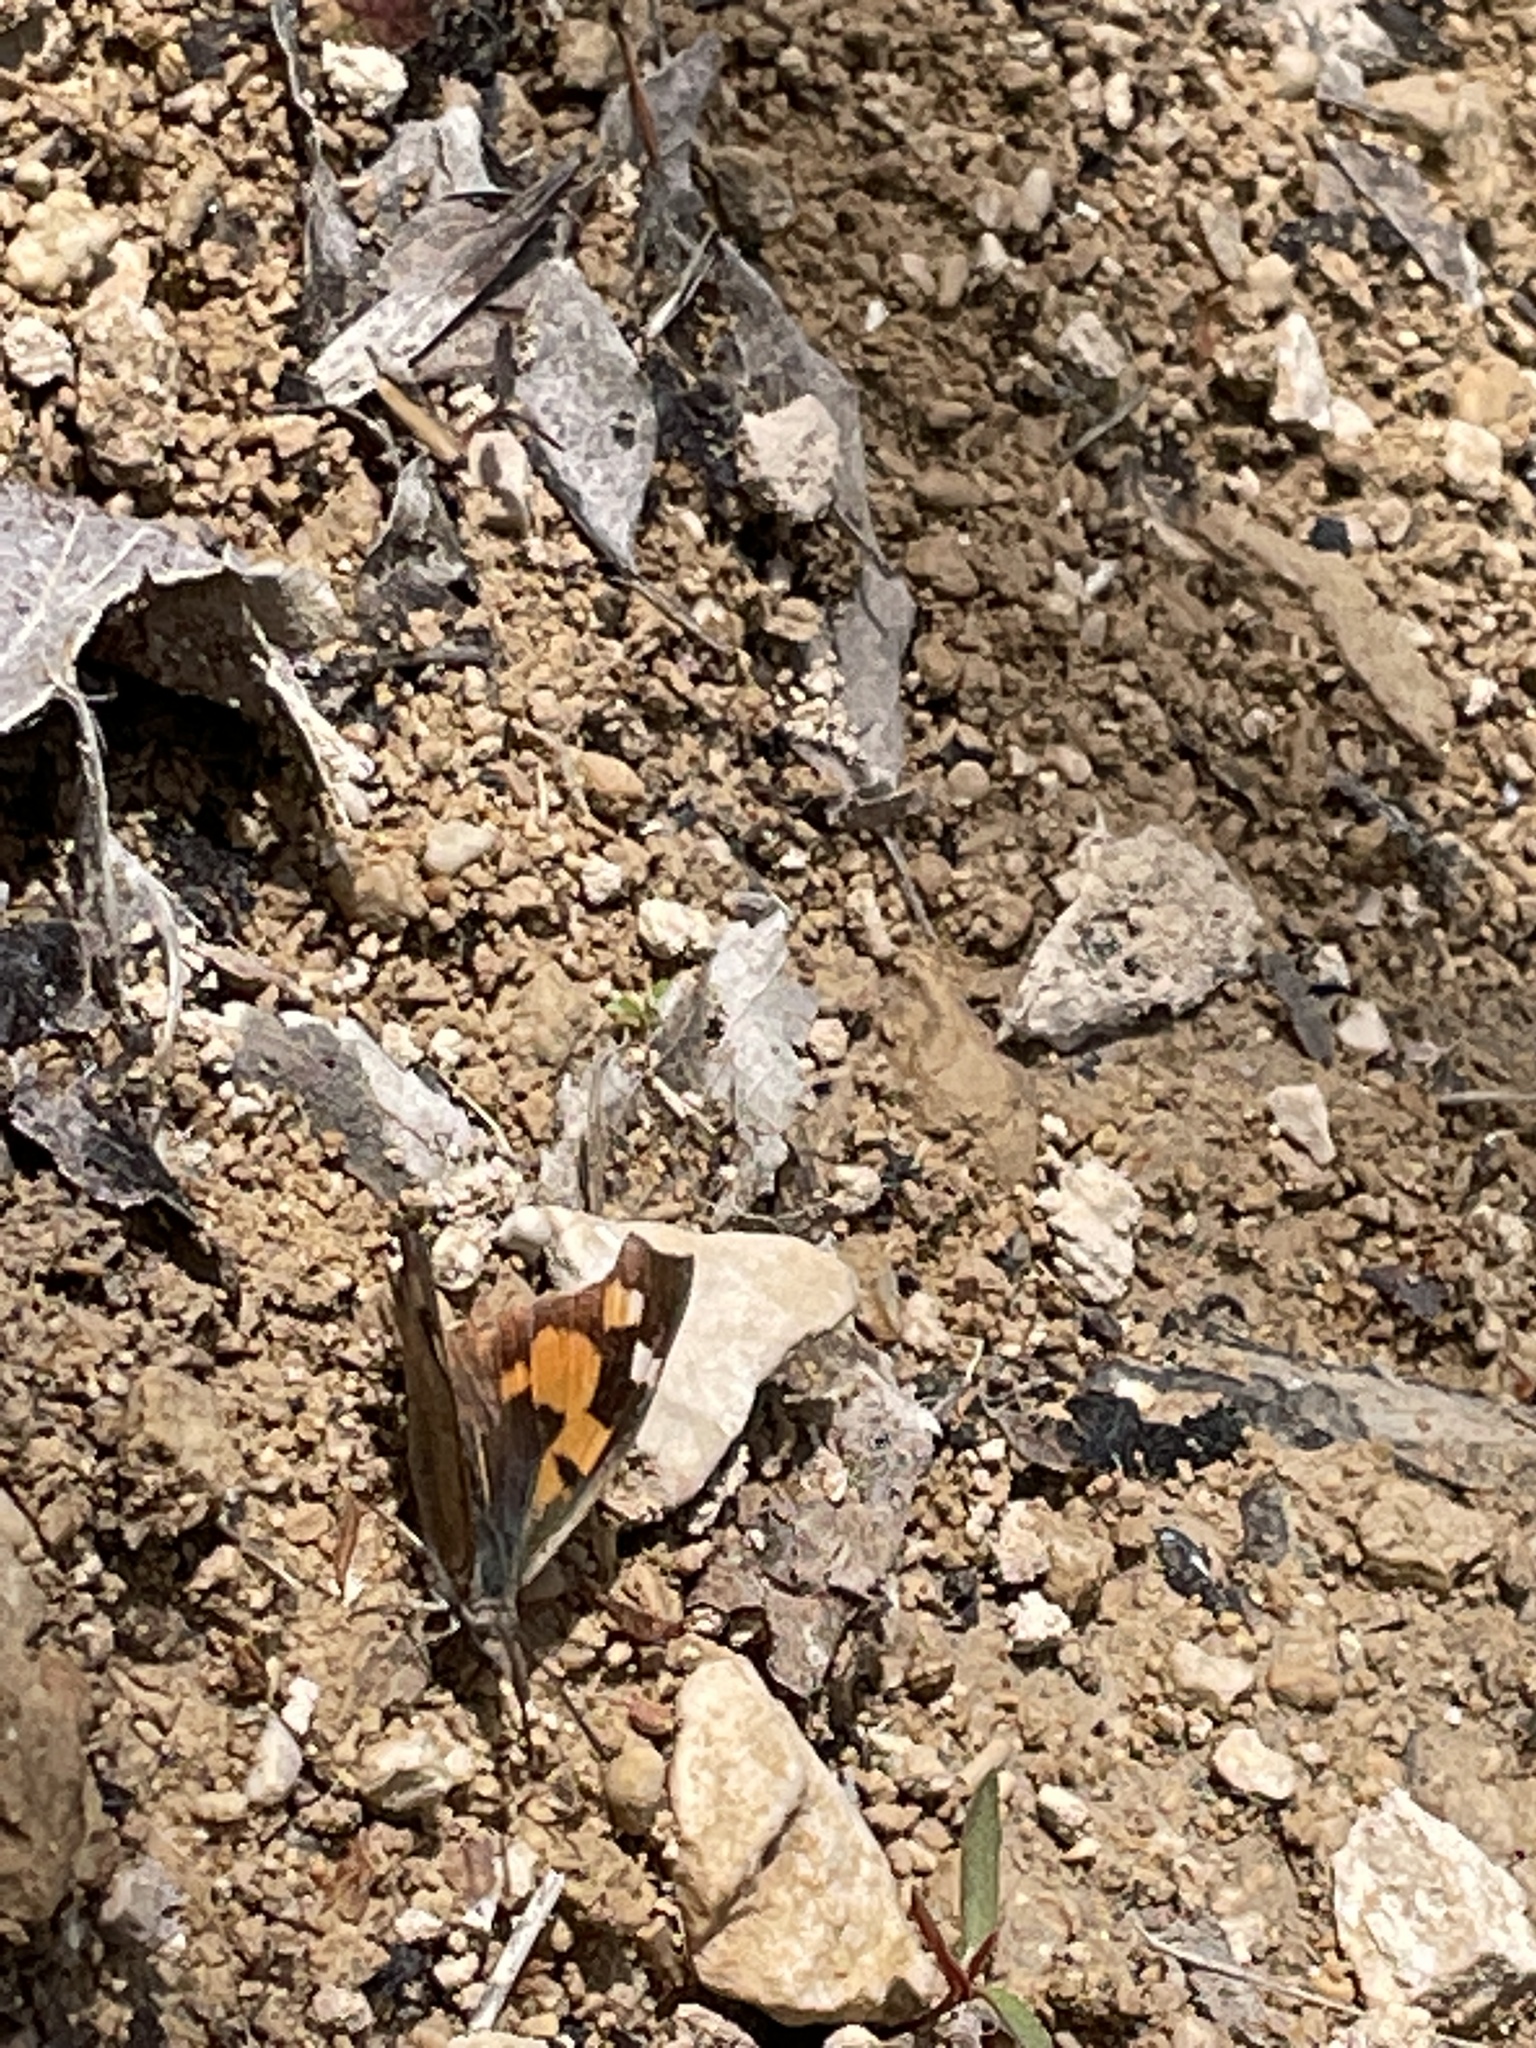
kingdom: Animalia
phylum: Arthropoda
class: Insecta
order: Lepidoptera
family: Nymphalidae
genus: Libythea
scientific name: Libythea celtis
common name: Nettle-tree butterfly
